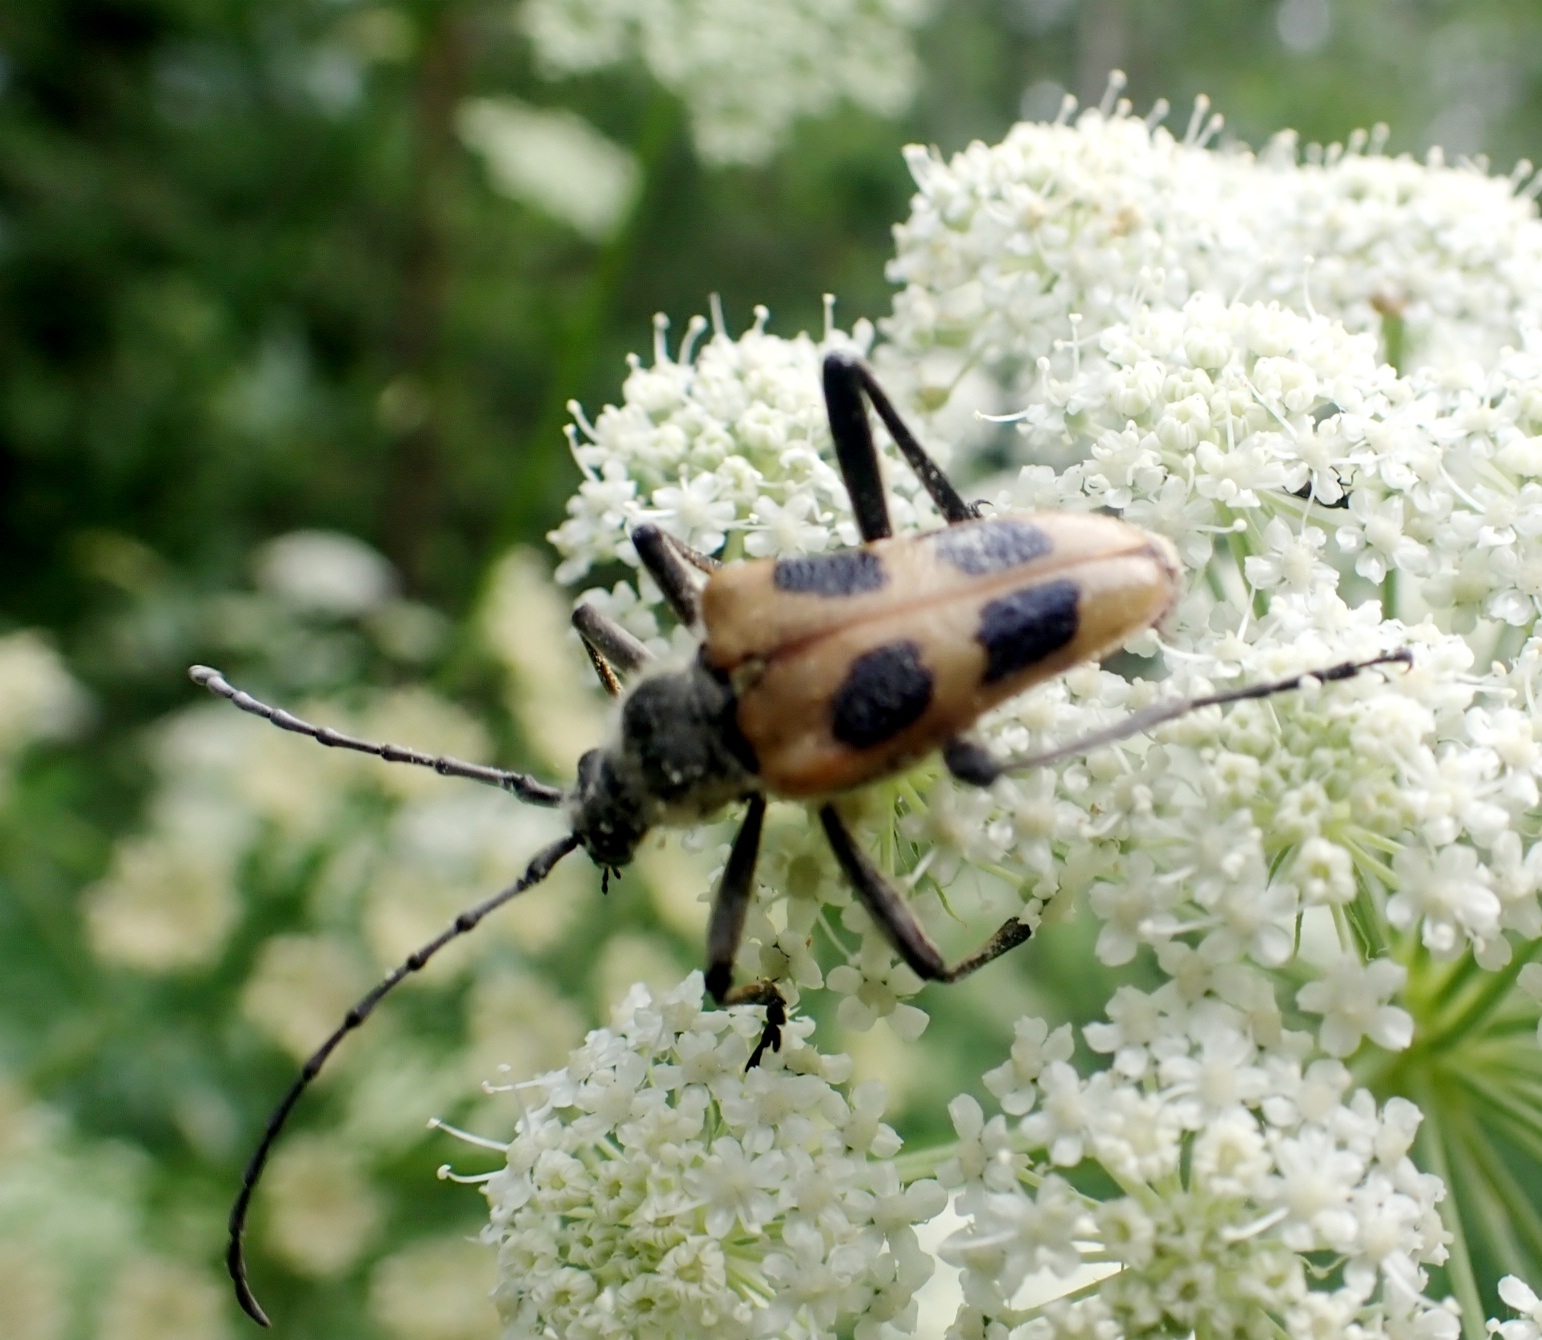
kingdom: Animalia
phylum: Arthropoda
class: Insecta
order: Coleoptera
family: Cerambycidae
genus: Pachyta
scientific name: Pachyta quadrimaculata
